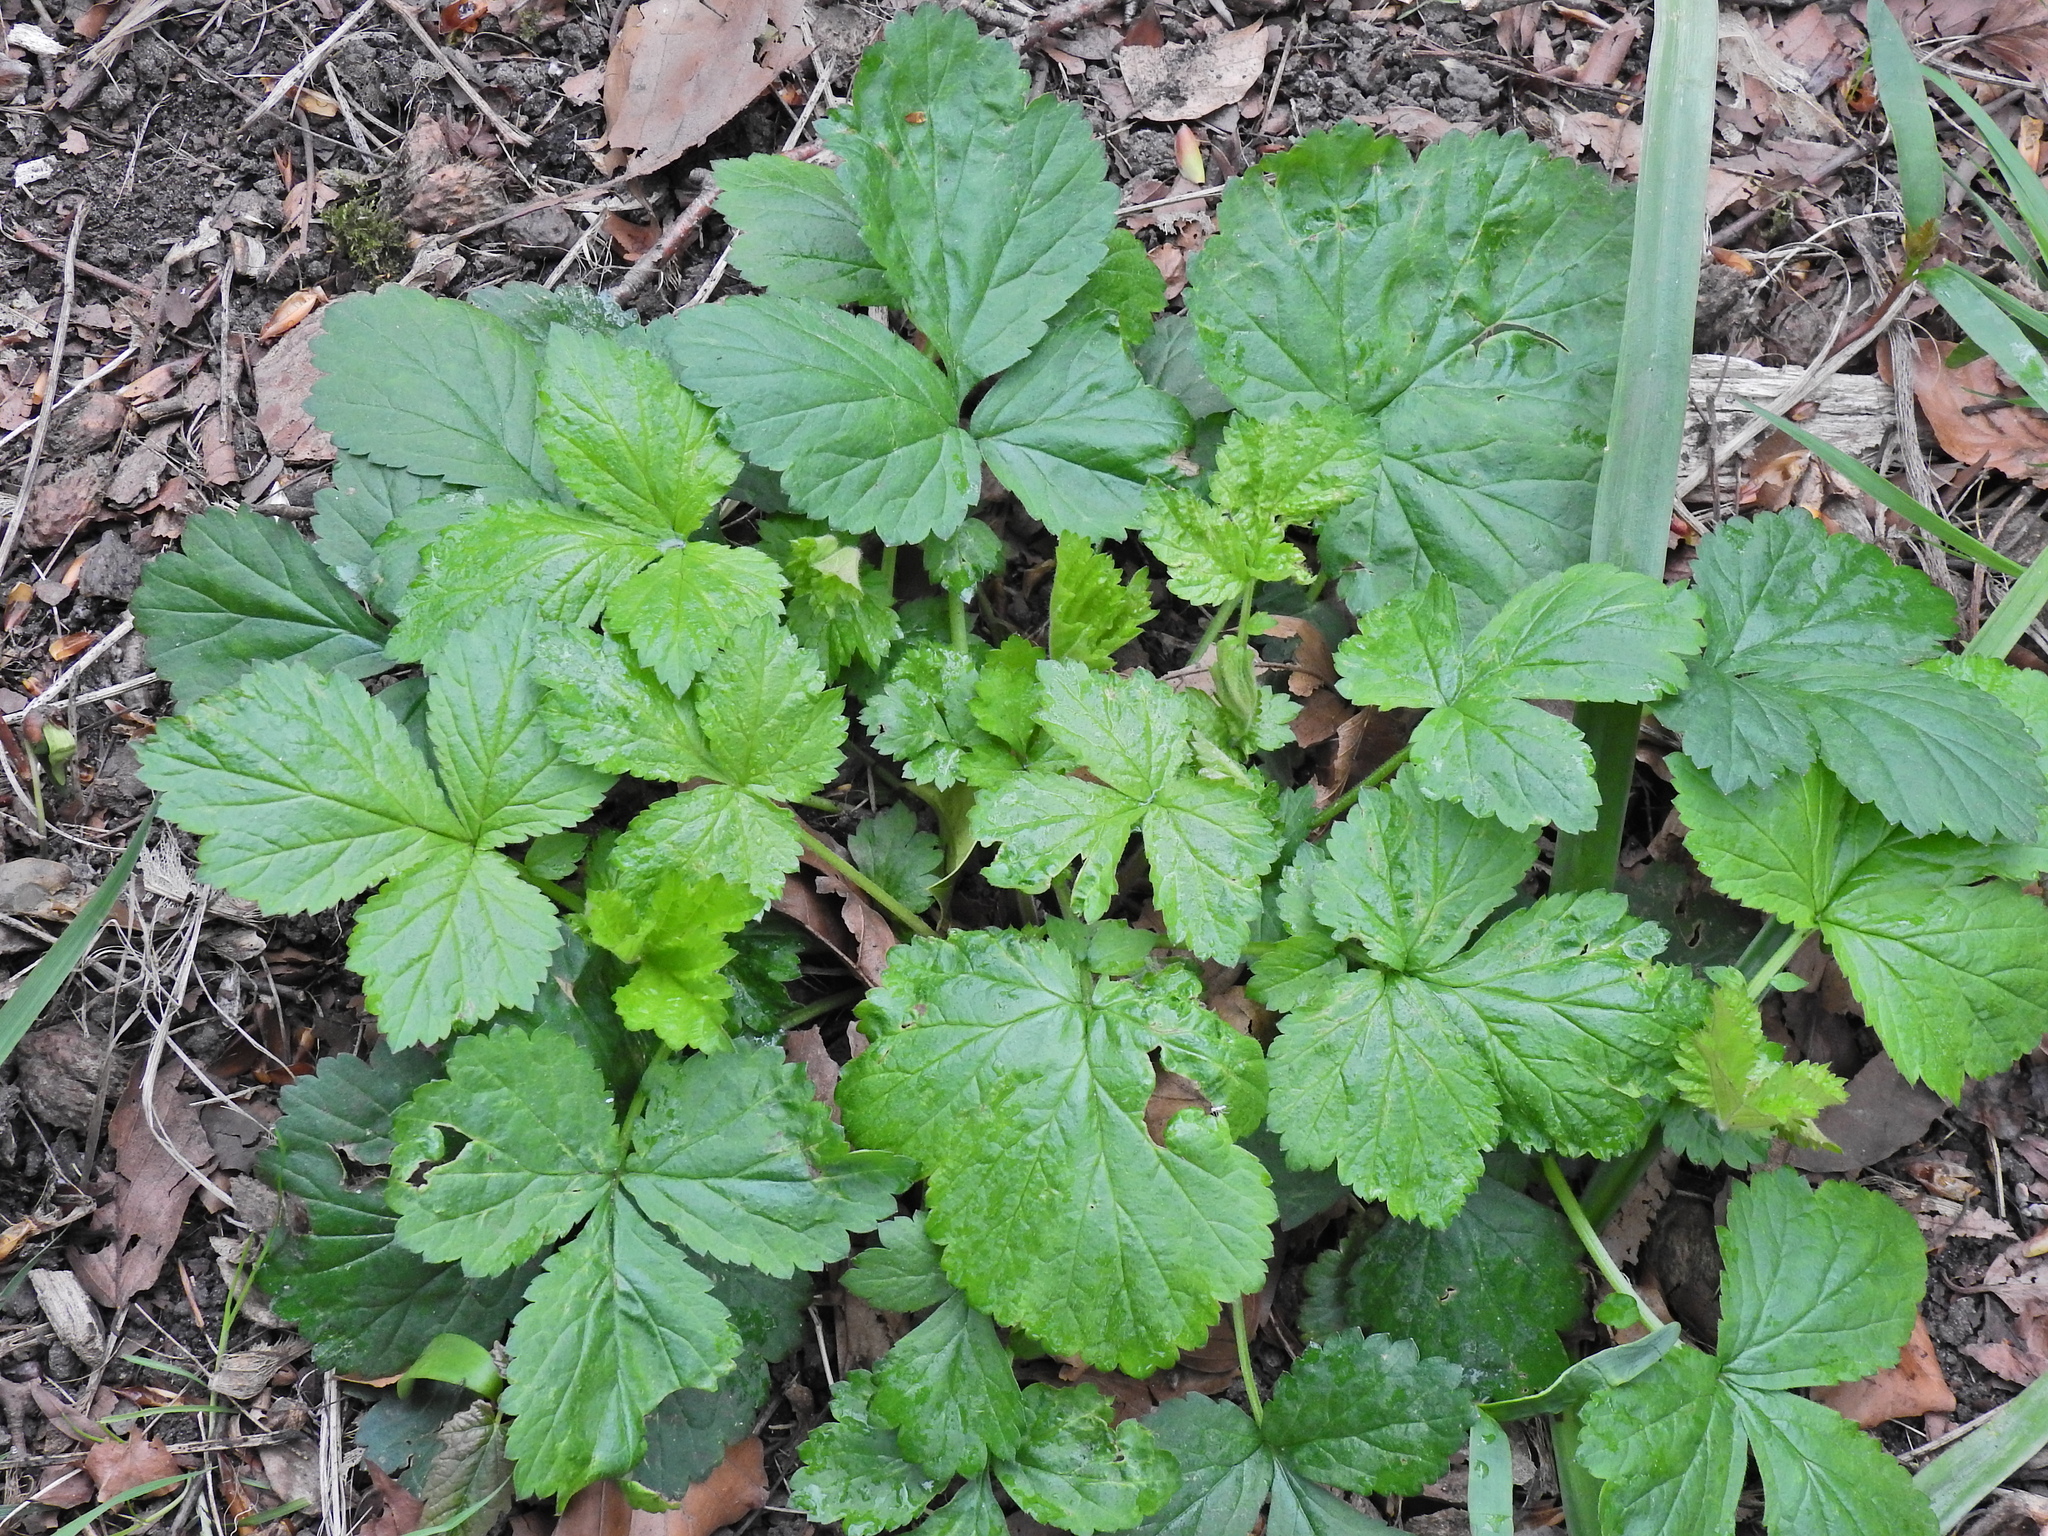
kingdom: Plantae
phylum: Tracheophyta
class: Magnoliopsida
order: Rosales
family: Rosaceae
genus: Geum
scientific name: Geum urbanum
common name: Wood avens
